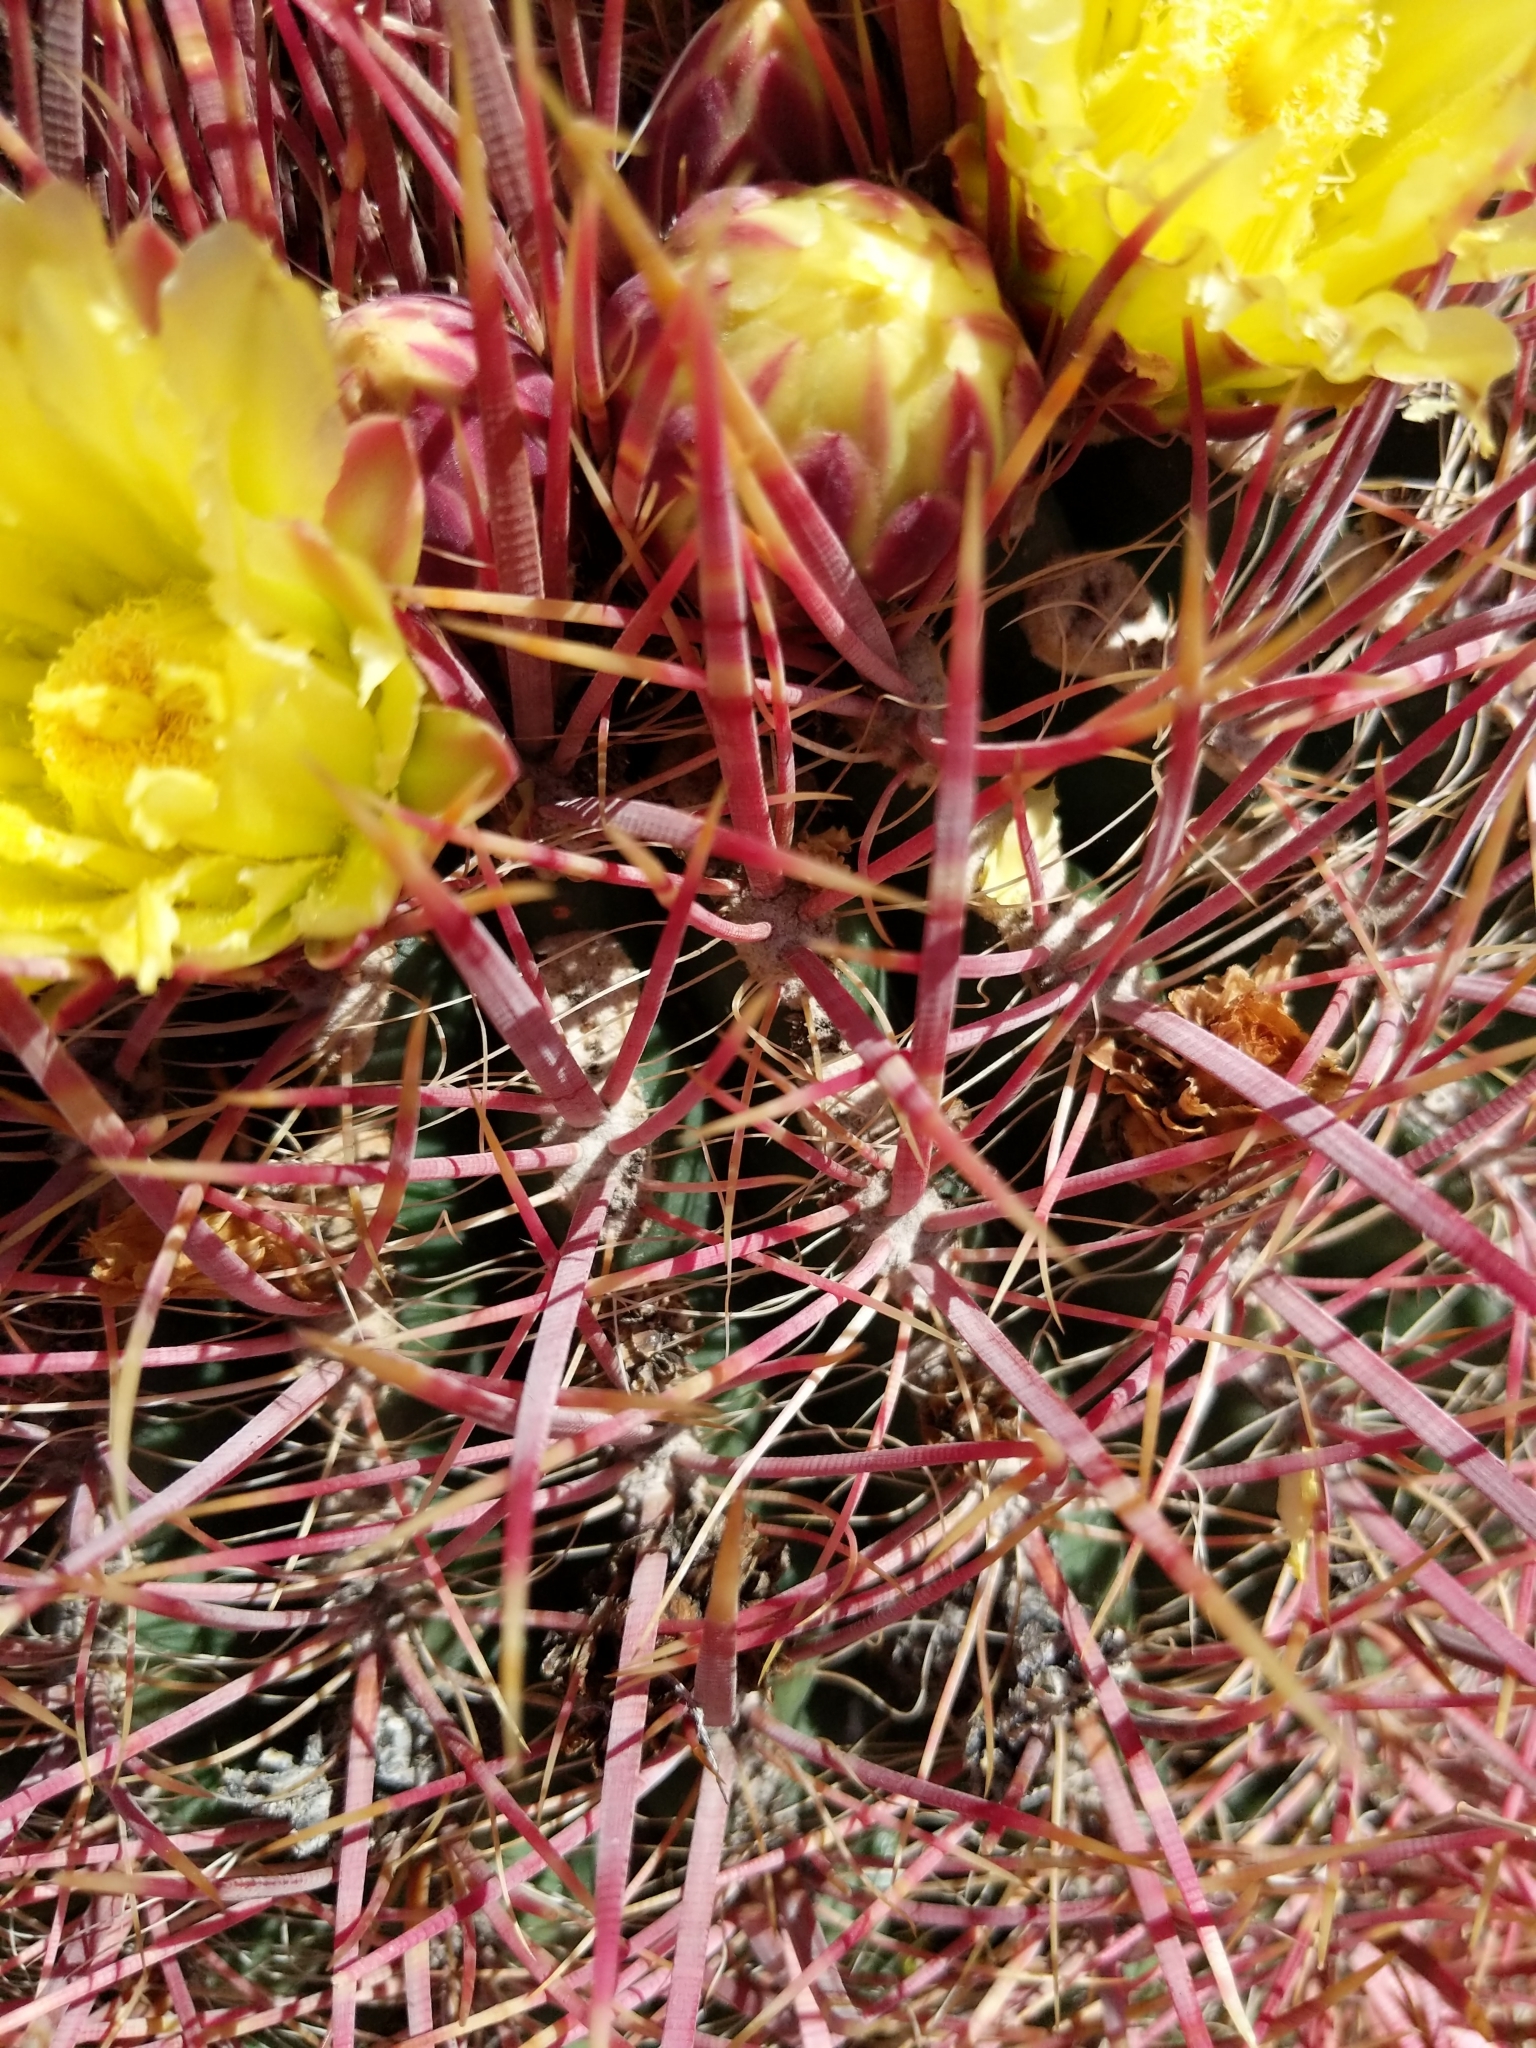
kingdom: Plantae
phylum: Tracheophyta
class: Magnoliopsida
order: Caryophyllales
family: Cactaceae
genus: Ferocactus
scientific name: Ferocactus cylindraceus
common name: California barrel cactus
